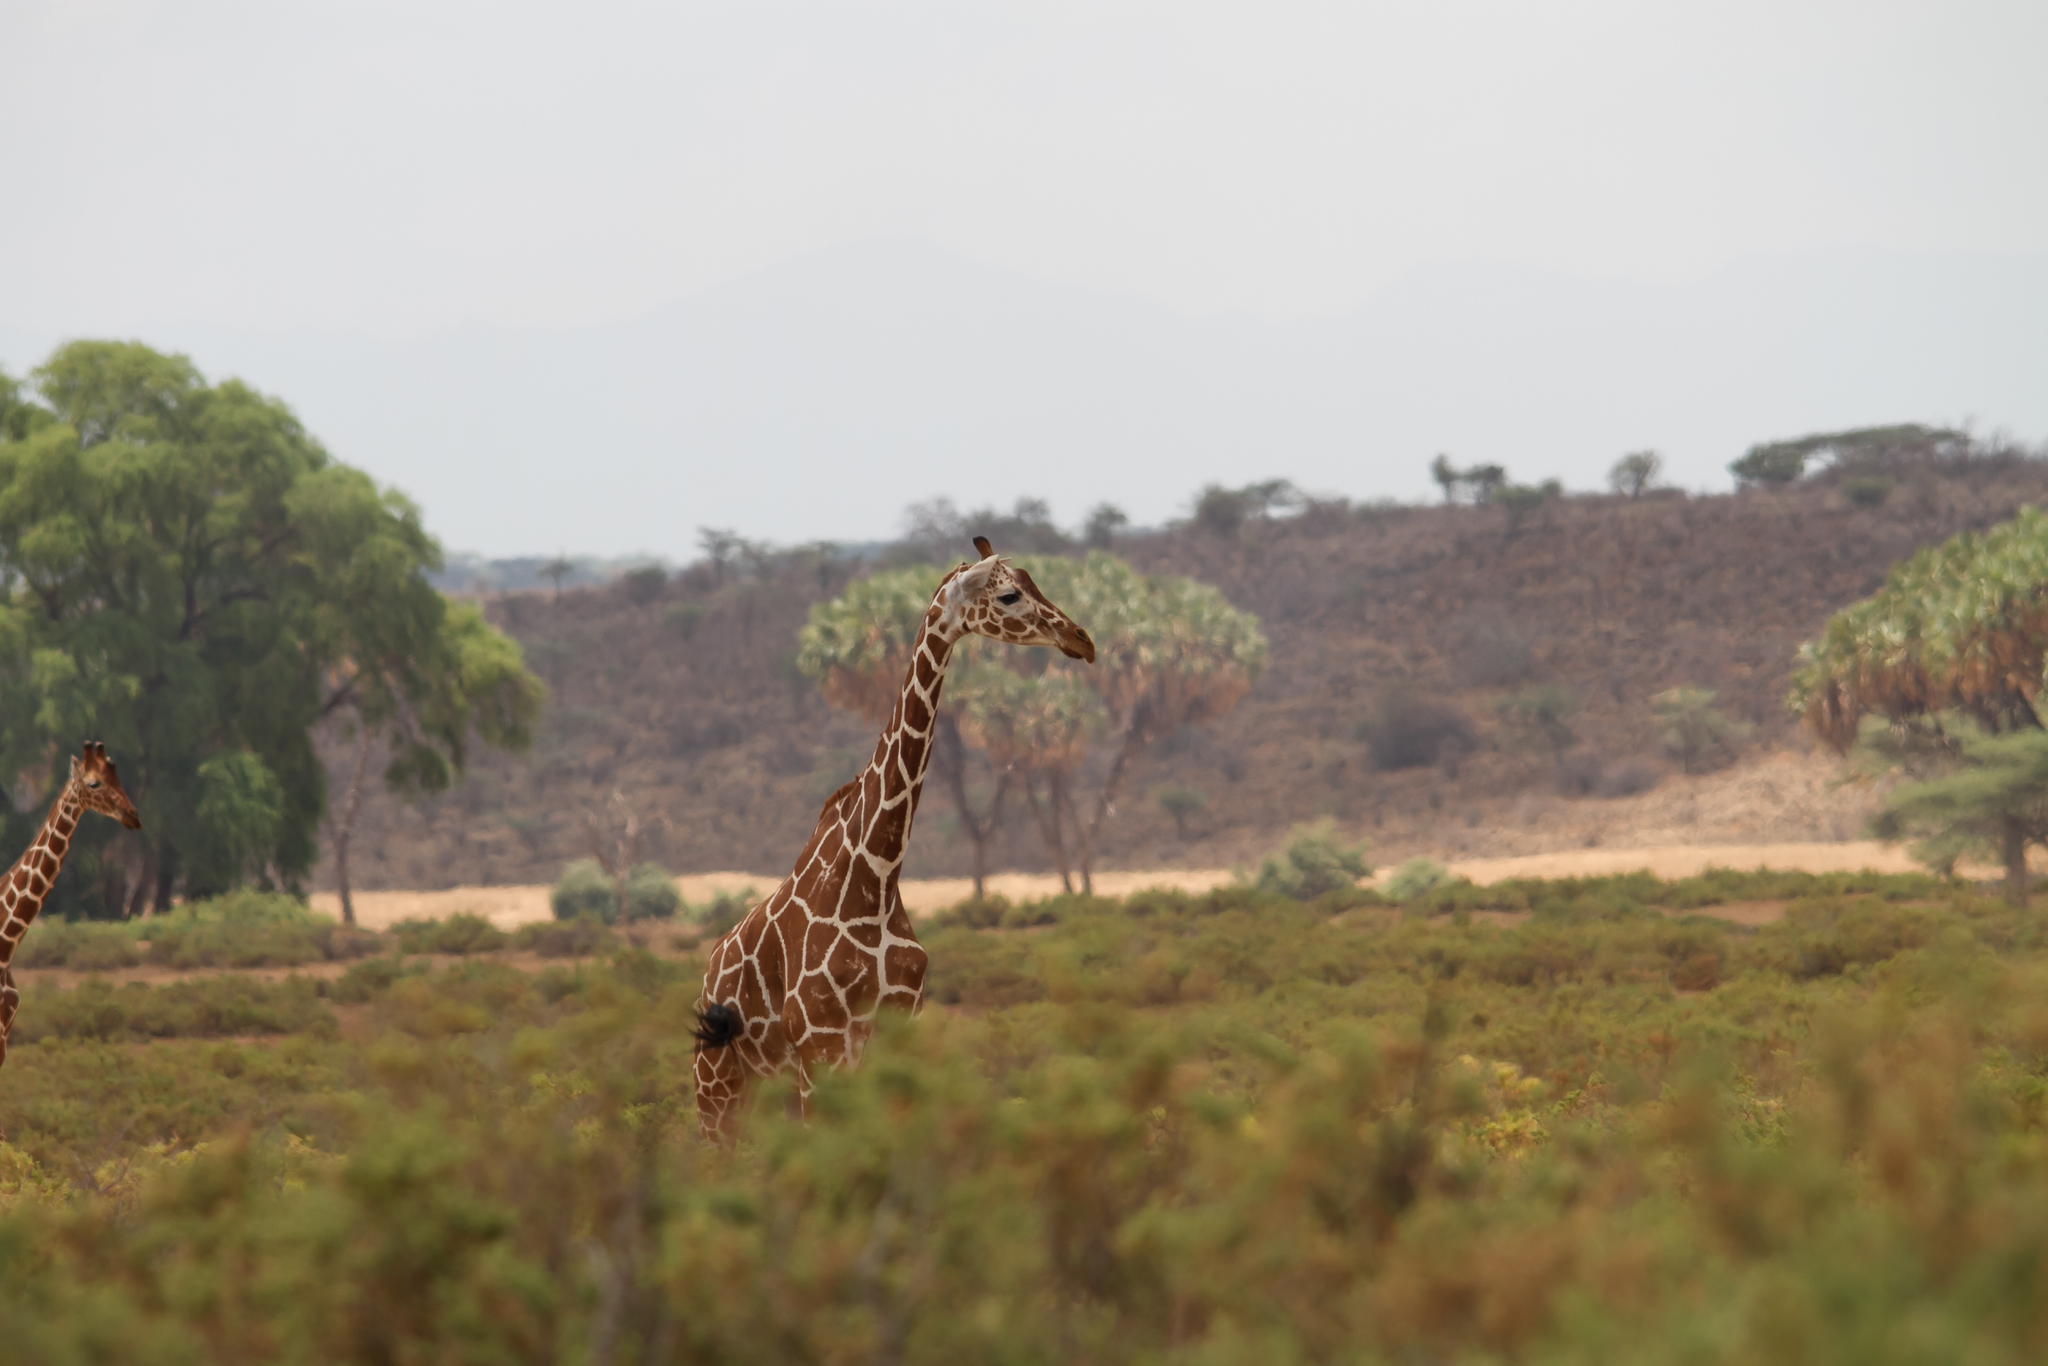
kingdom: Animalia
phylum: Chordata
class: Mammalia
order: Artiodactyla
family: Giraffidae
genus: Giraffa
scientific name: Giraffa reticulata
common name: Reticulated giraffe
